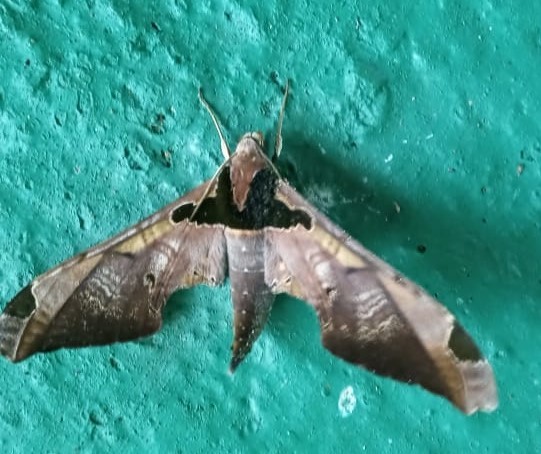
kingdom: Animalia
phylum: Arthropoda
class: Insecta
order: Lepidoptera
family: Sphingidae
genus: Adhemarius
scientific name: Adhemarius ypsilon
